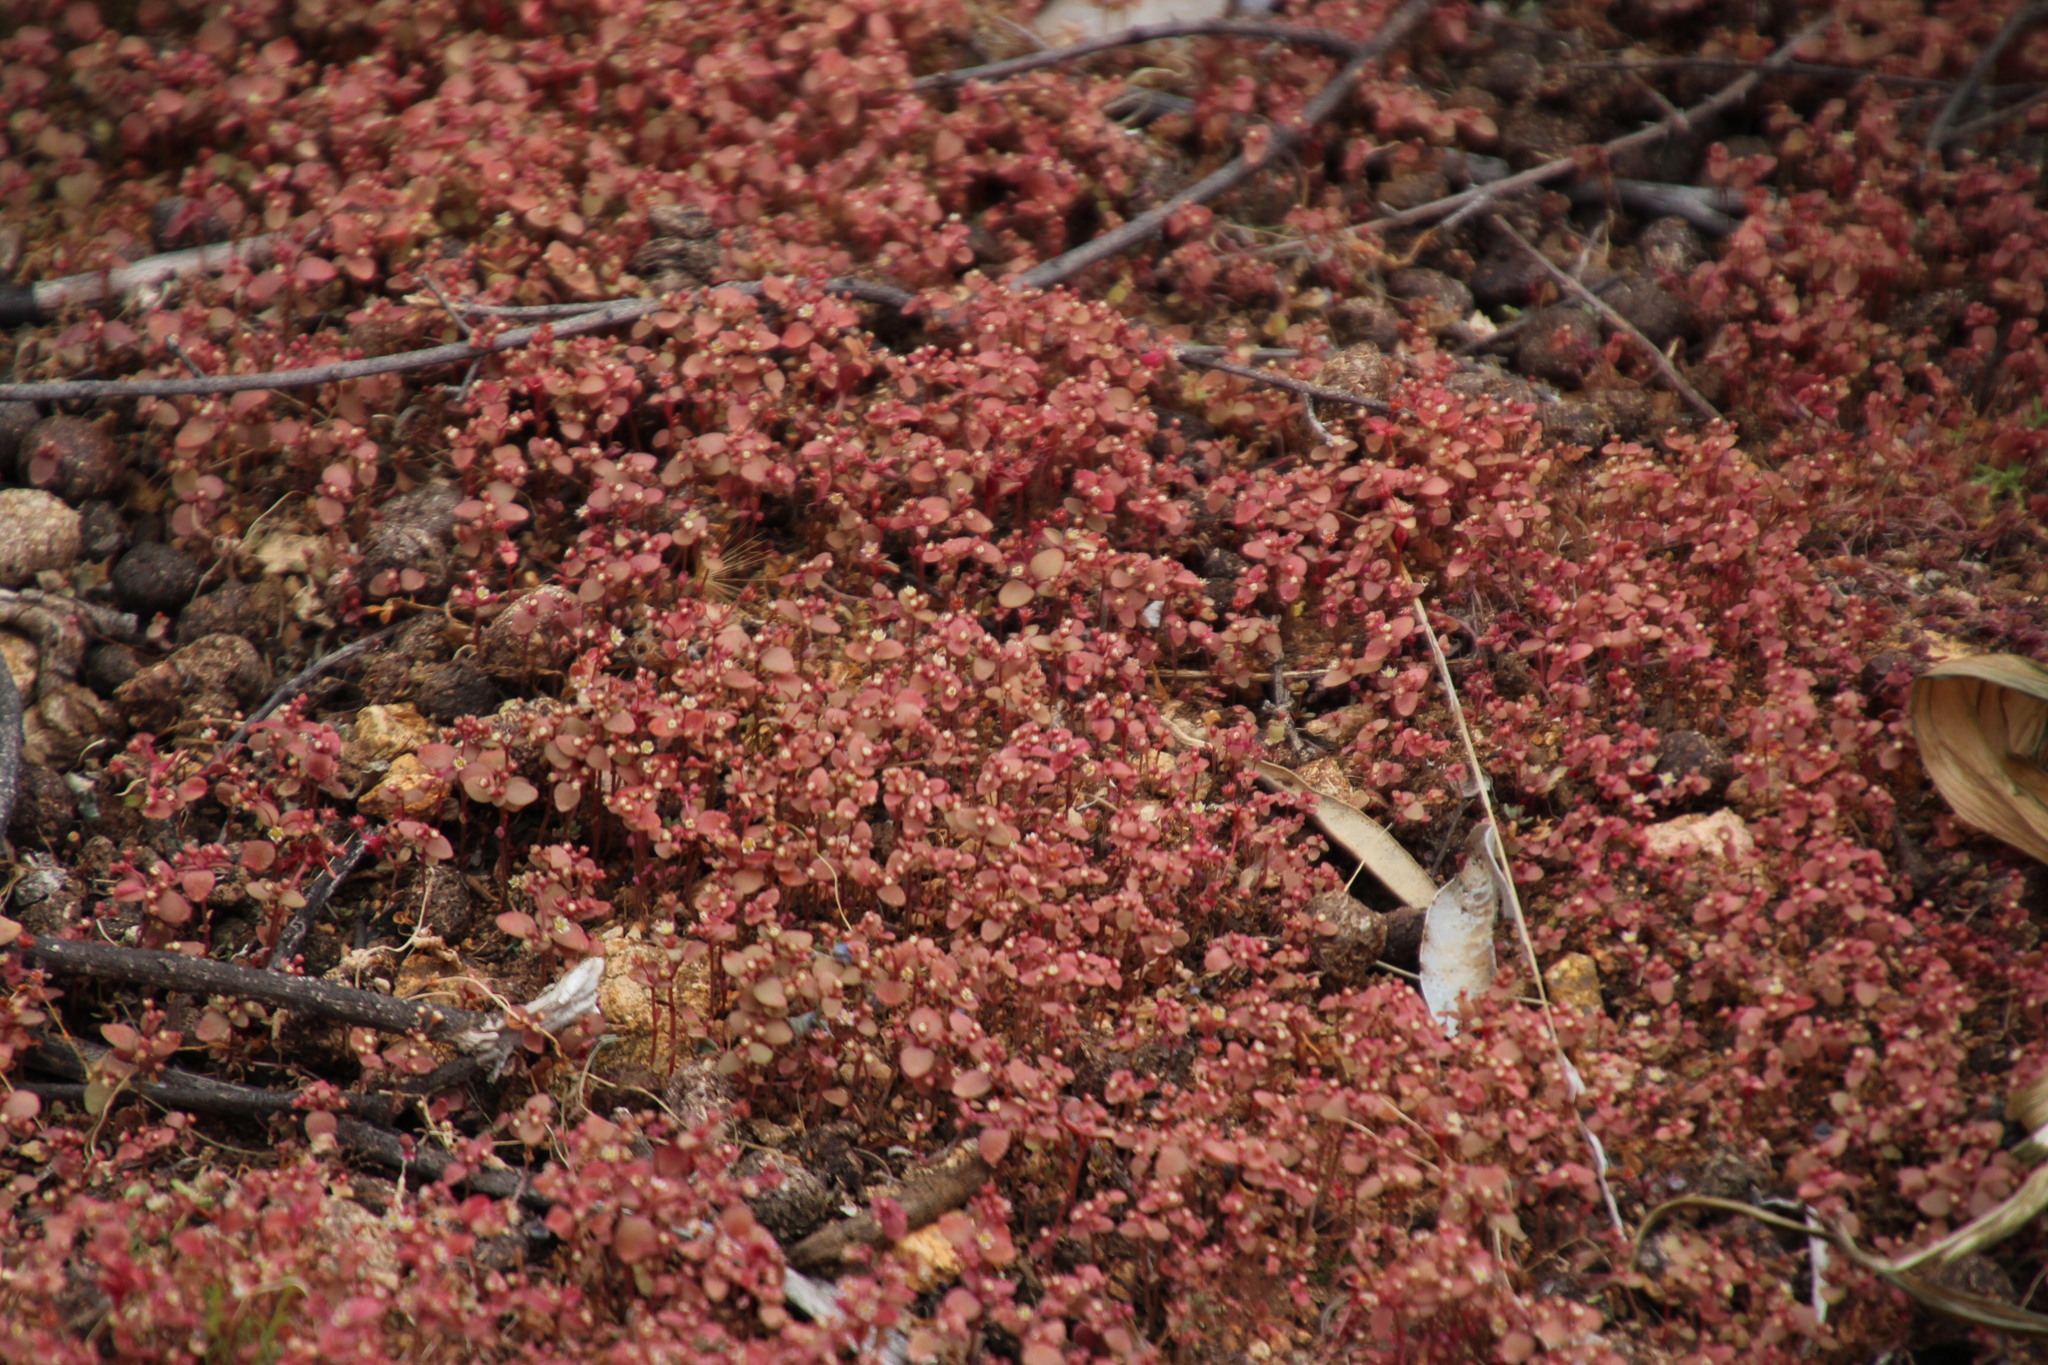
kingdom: Plantae
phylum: Tracheophyta
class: Magnoliopsida
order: Saxifragales
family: Crassulaceae
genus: Crassula
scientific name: Crassula strigosa
